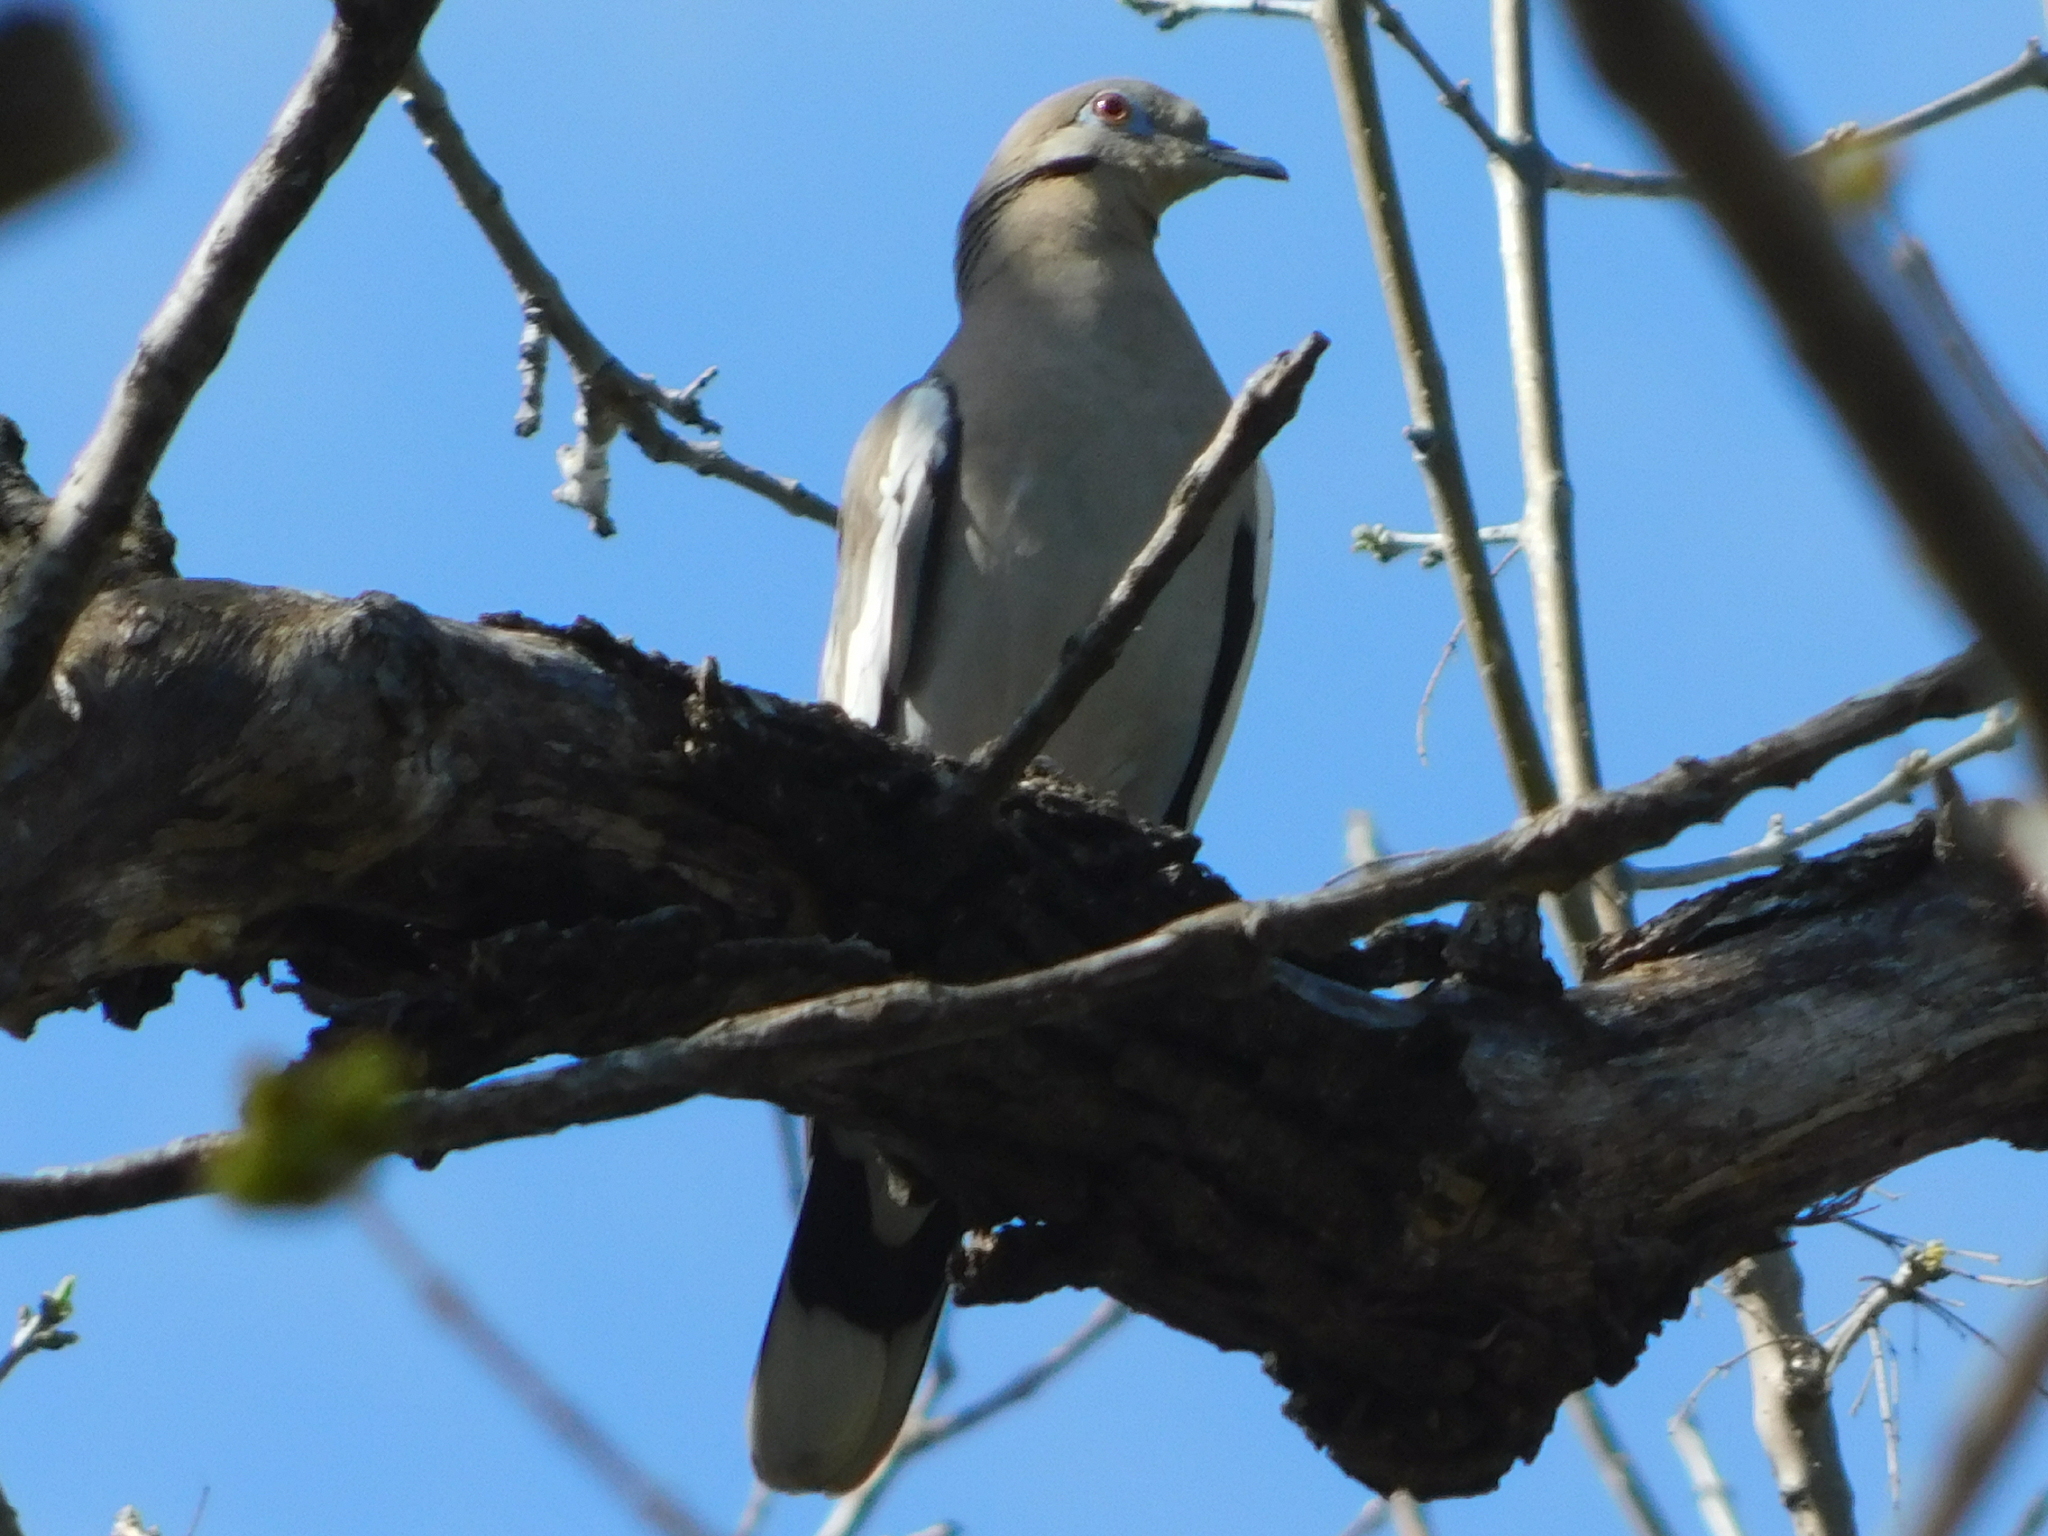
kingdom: Animalia
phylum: Chordata
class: Aves
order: Columbiformes
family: Columbidae
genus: Zenaida
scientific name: Zenaida asiatica
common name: White-winged dove
